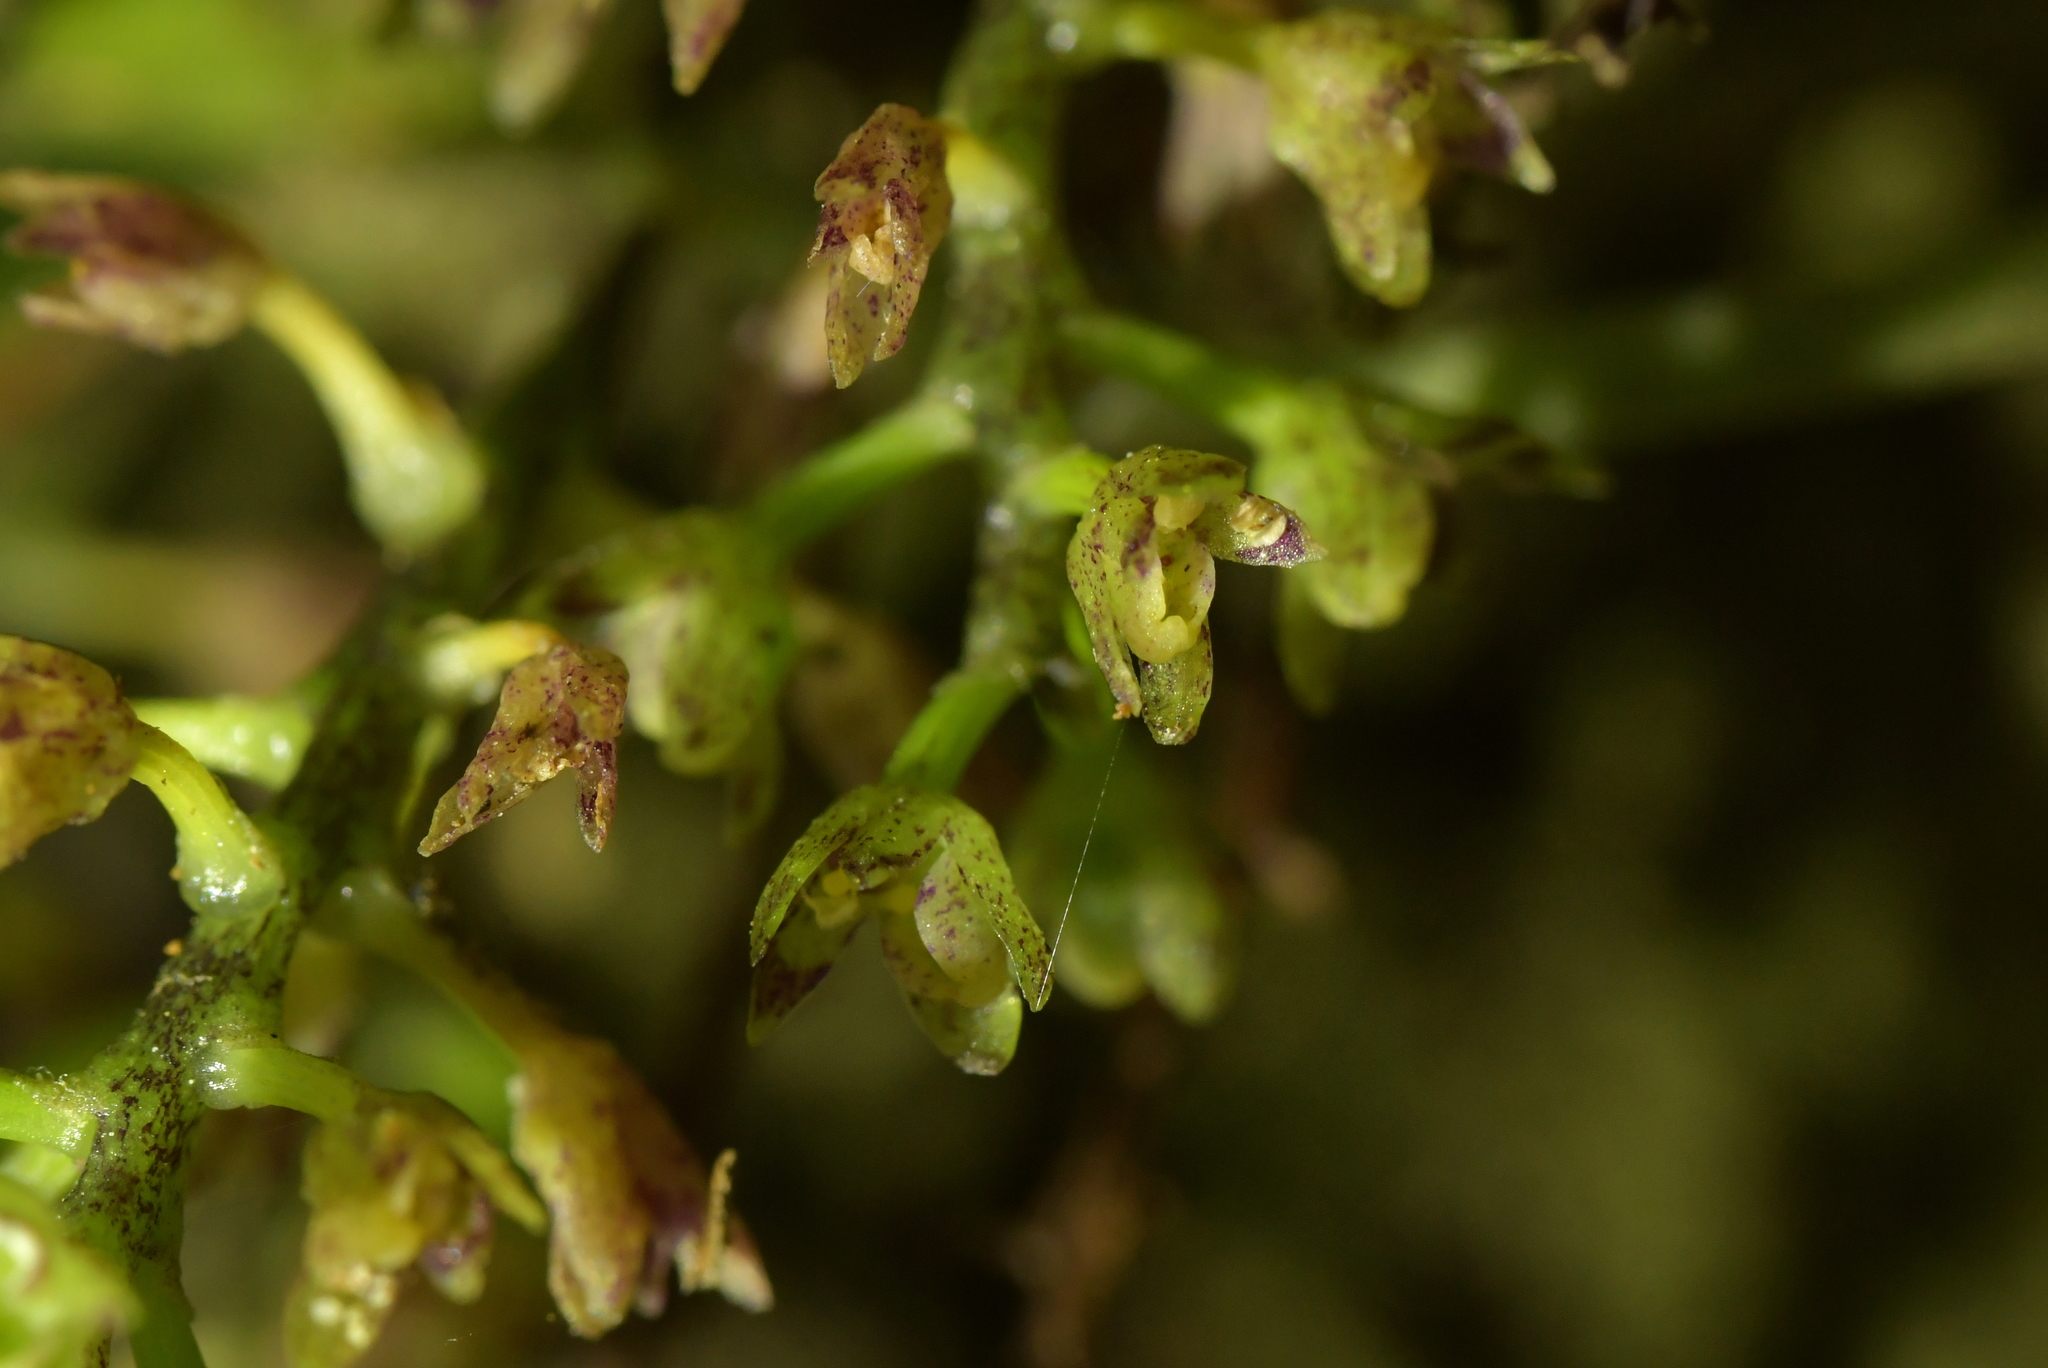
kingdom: Plantae
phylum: Tracheophyta
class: Liliopsida
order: Asparagales
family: Orchidaceae
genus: Drymoanthus
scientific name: Drymoanthus adversus
